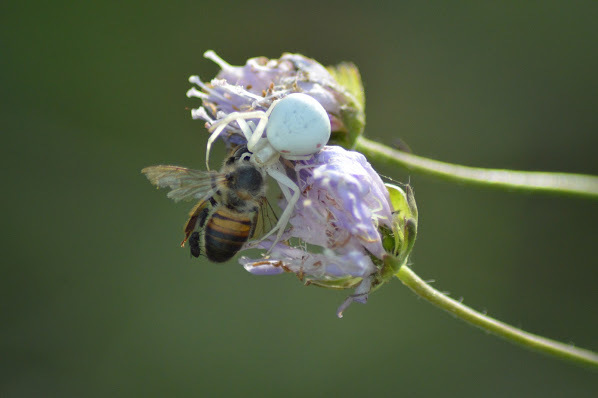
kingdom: Animalia
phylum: Arthropoda
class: Arachnida
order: Araneae
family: Thomisidae
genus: Misumena
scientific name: Misumena vatia
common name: Goldenrod crab spider
